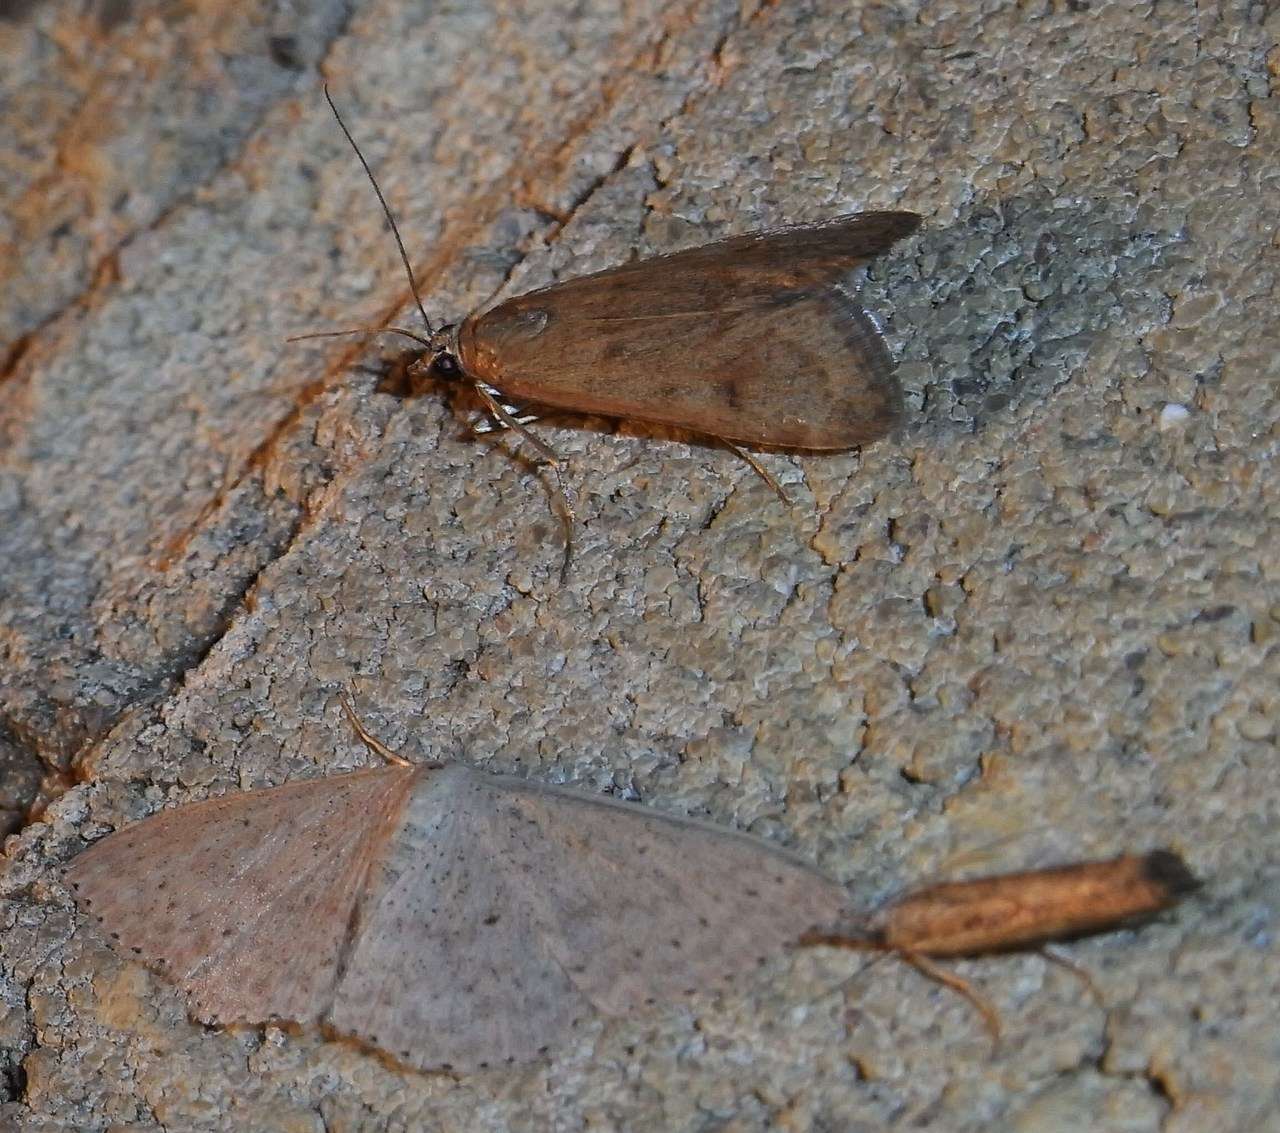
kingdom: Animalia
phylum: Arthropoda
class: Insecta
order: Lepidoptera
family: Geometridae
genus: Scopula
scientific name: Scopula optivata
